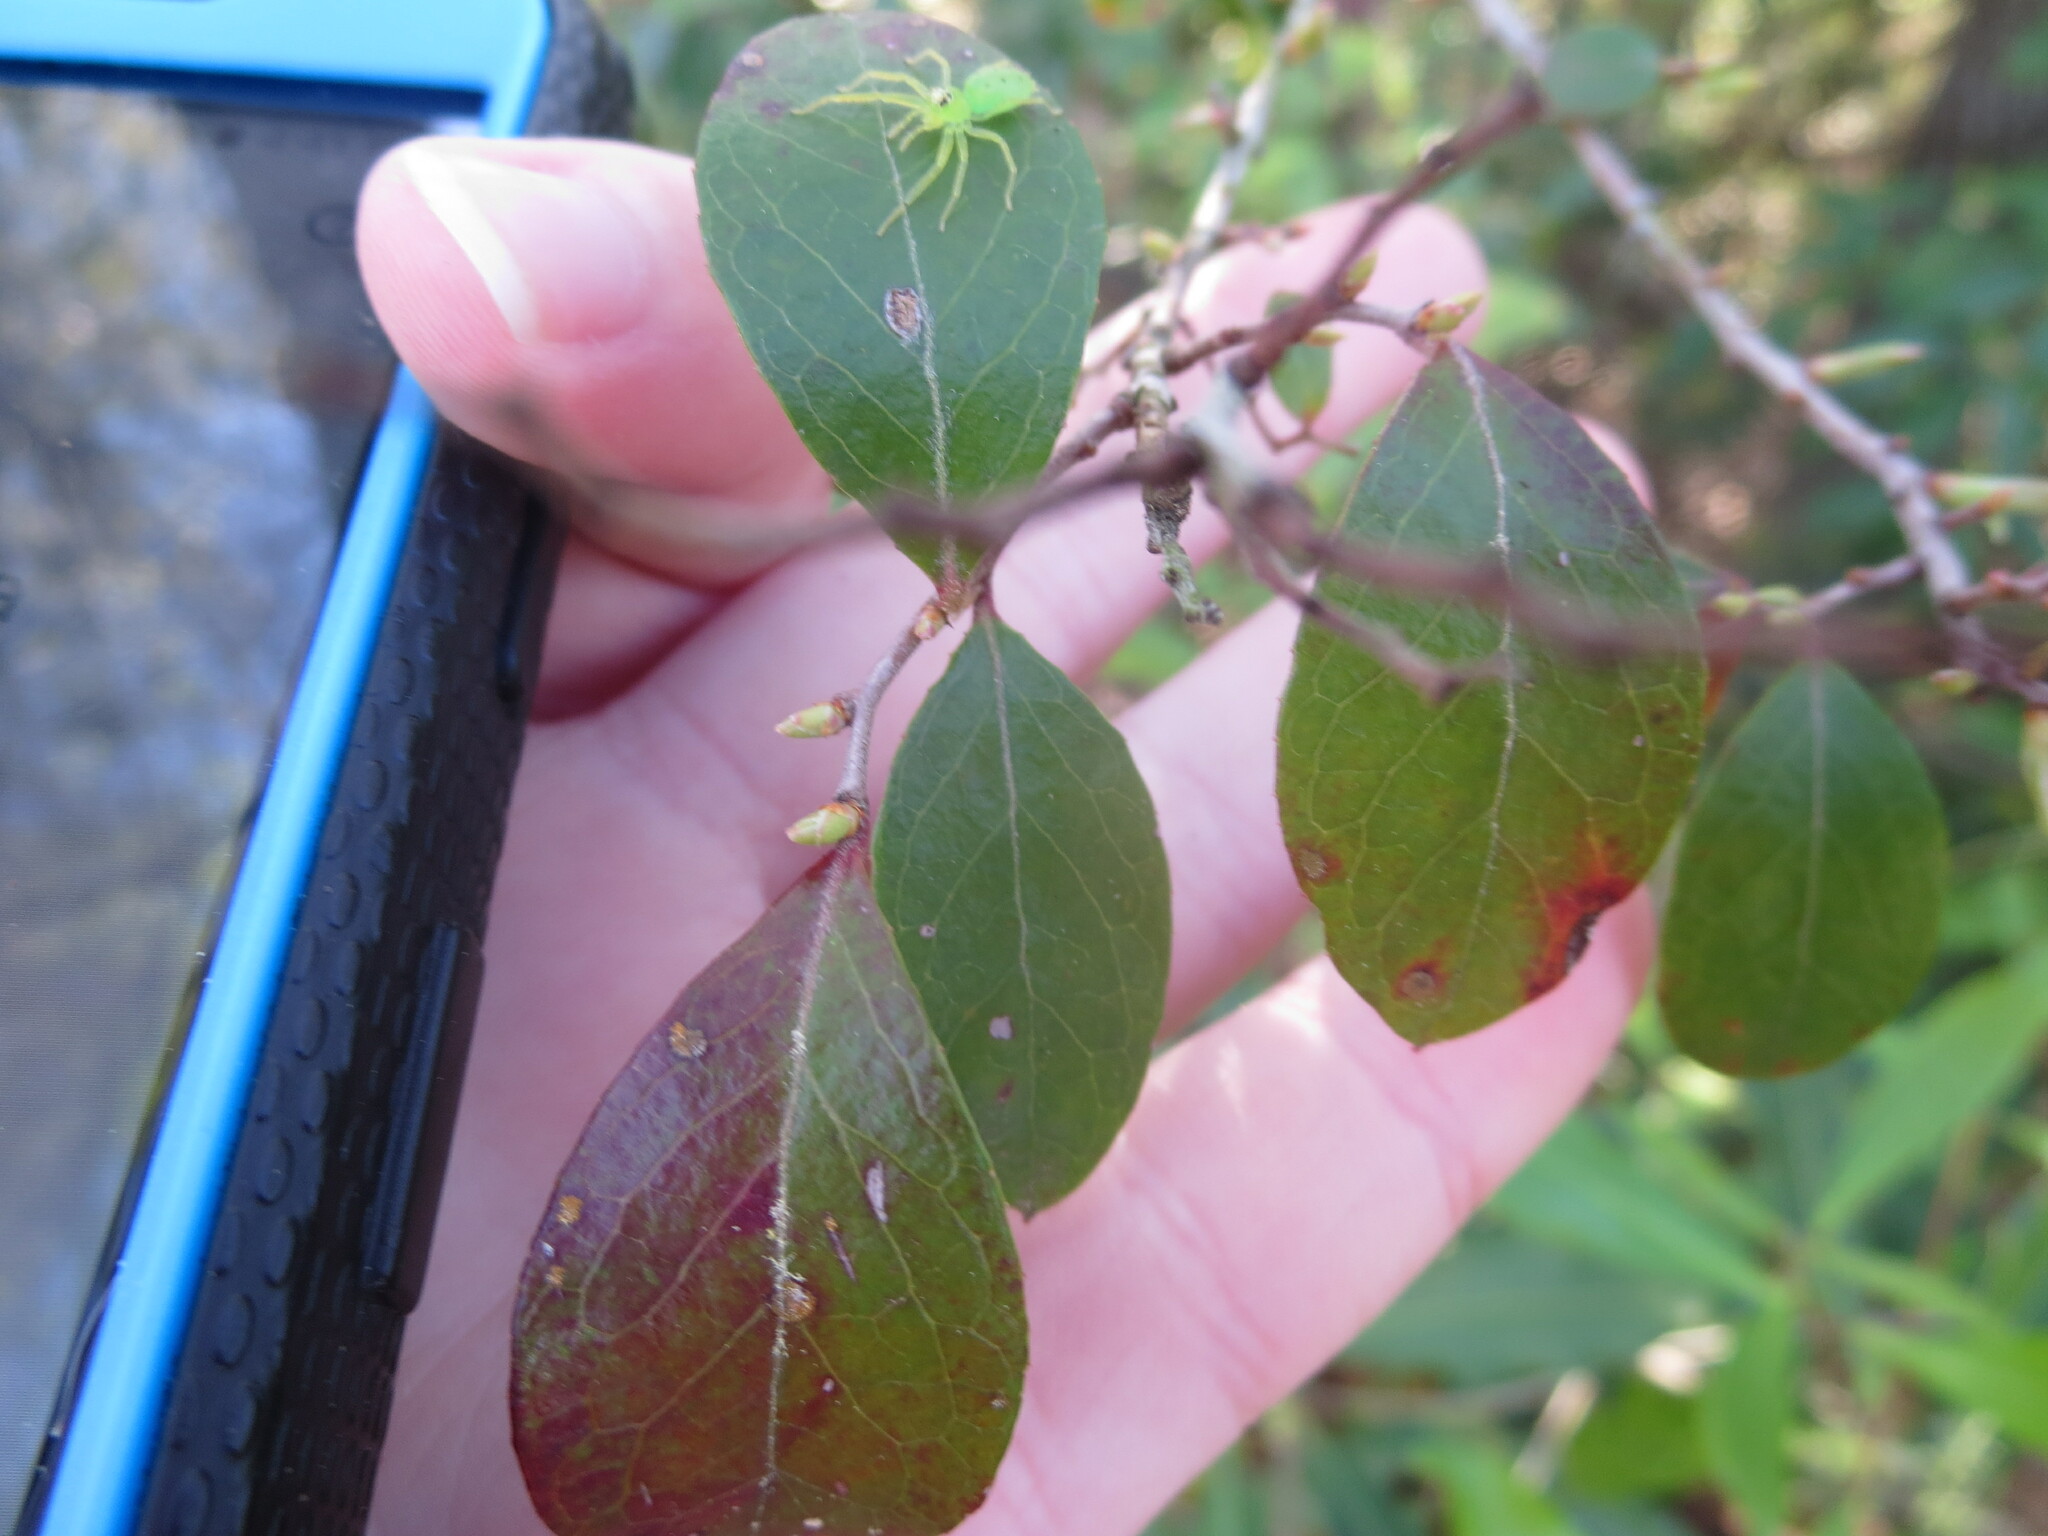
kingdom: Animalia
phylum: Arthropoda
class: Arachnida
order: Araneae
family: Salticidae
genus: Lyssomanes
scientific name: Lyssomanes viridis
